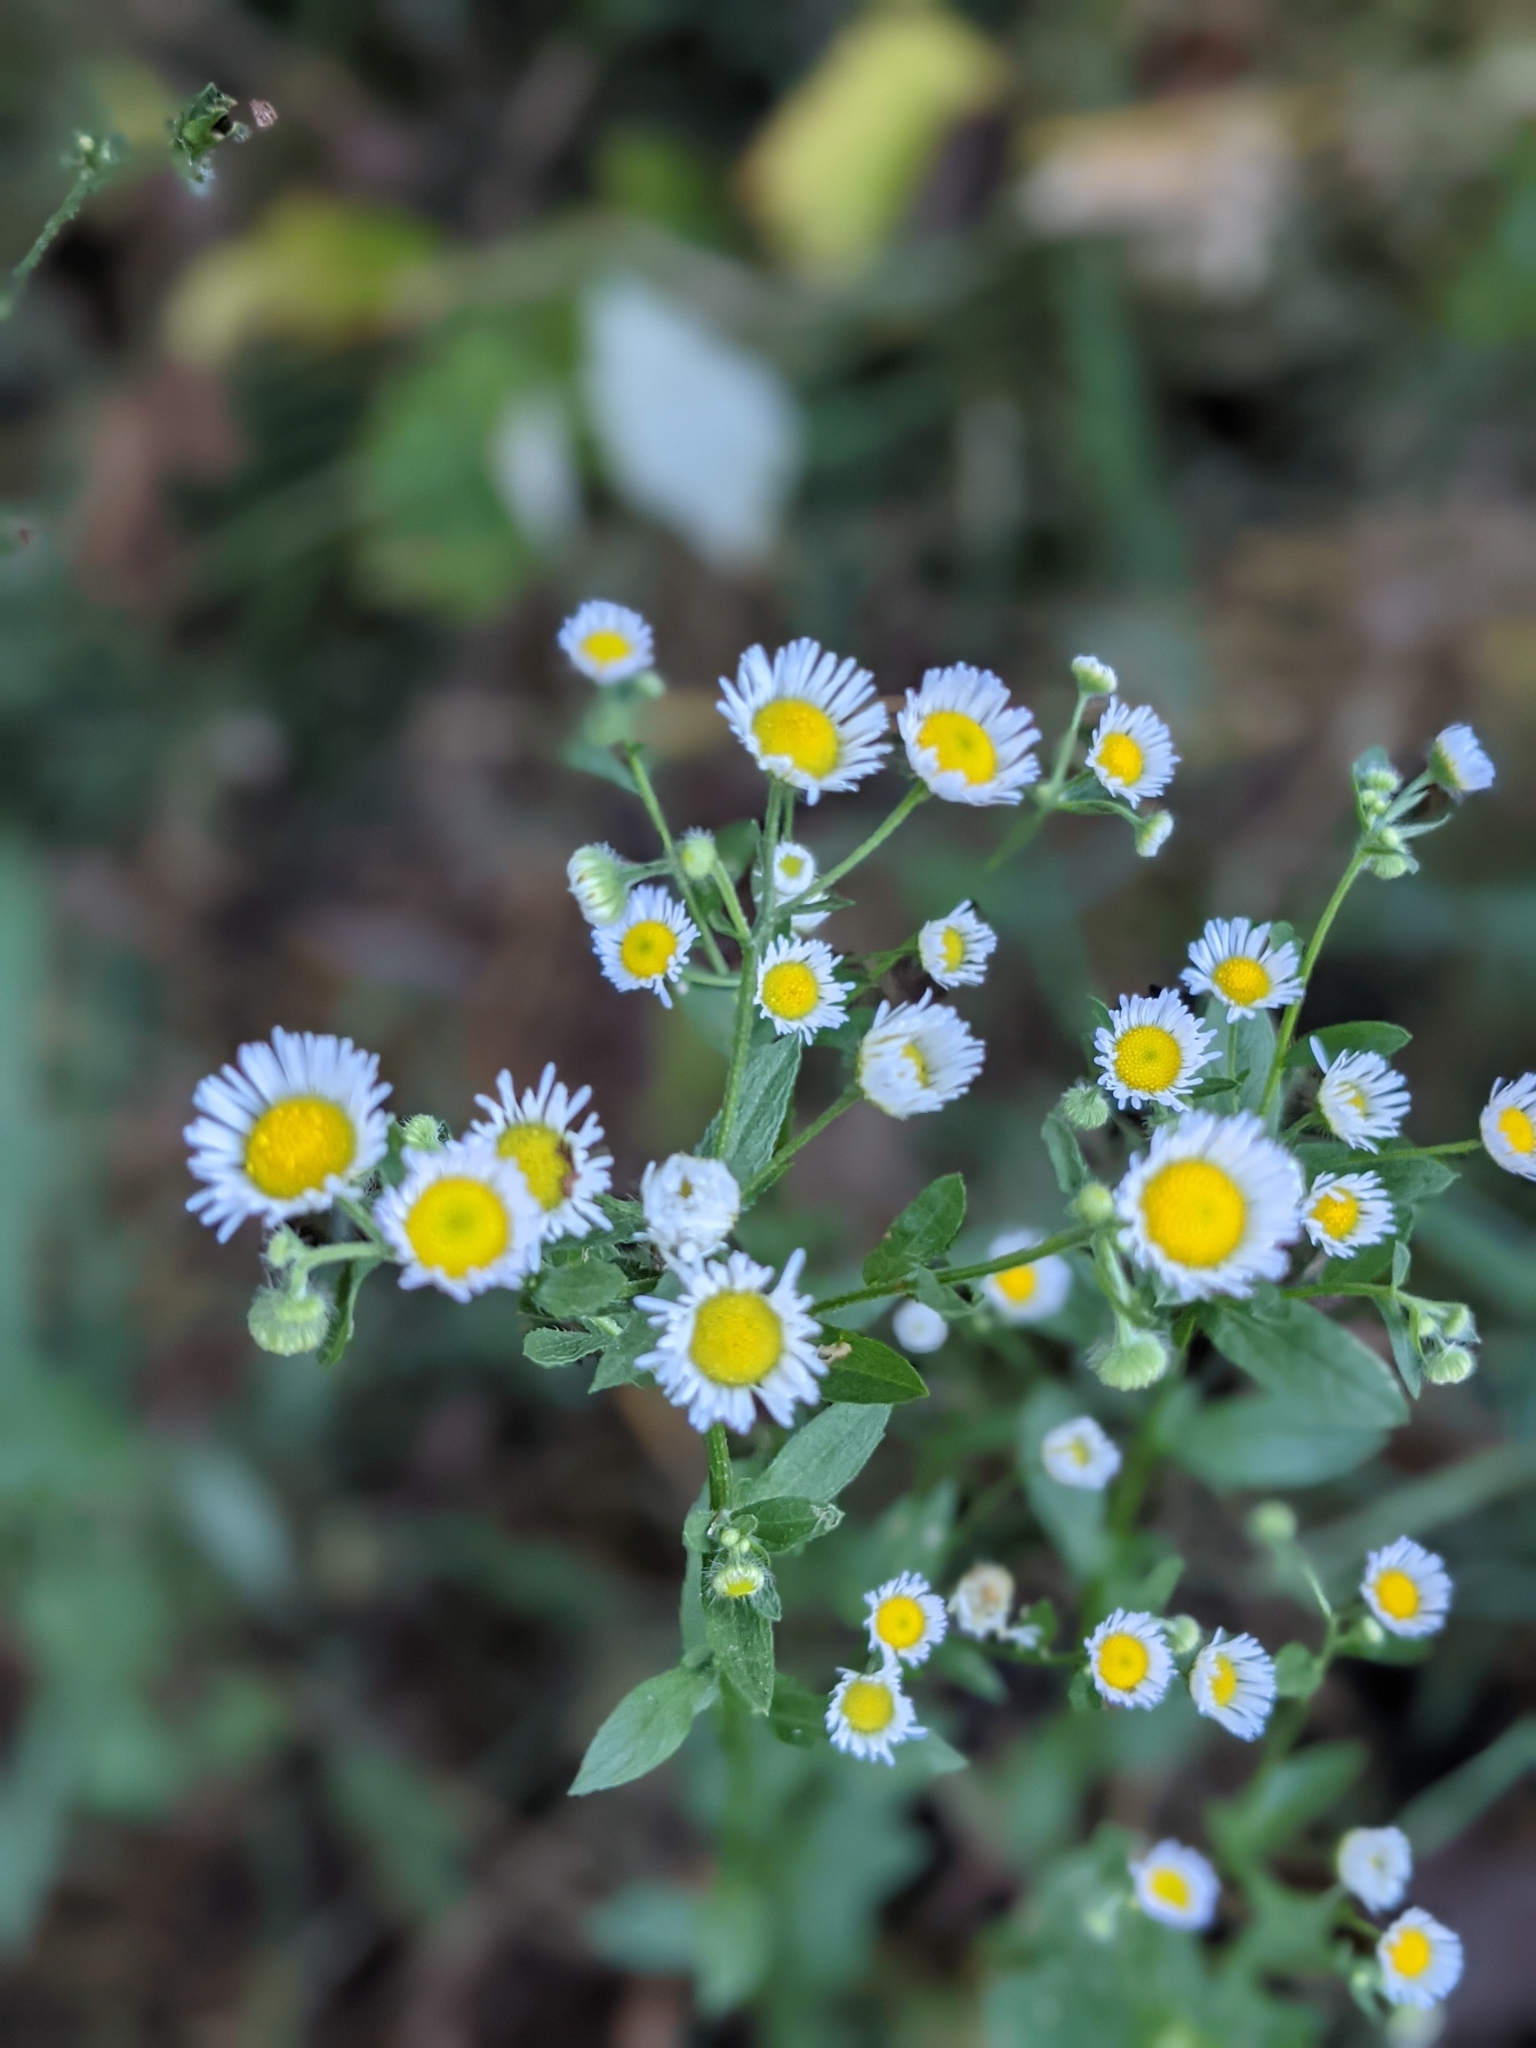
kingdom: Plantae
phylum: Tracheophyta
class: Magnoliopsida
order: Asterales
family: Asteraceae
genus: Erigeron
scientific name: Erigeron annuus
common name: Tall fleabane
